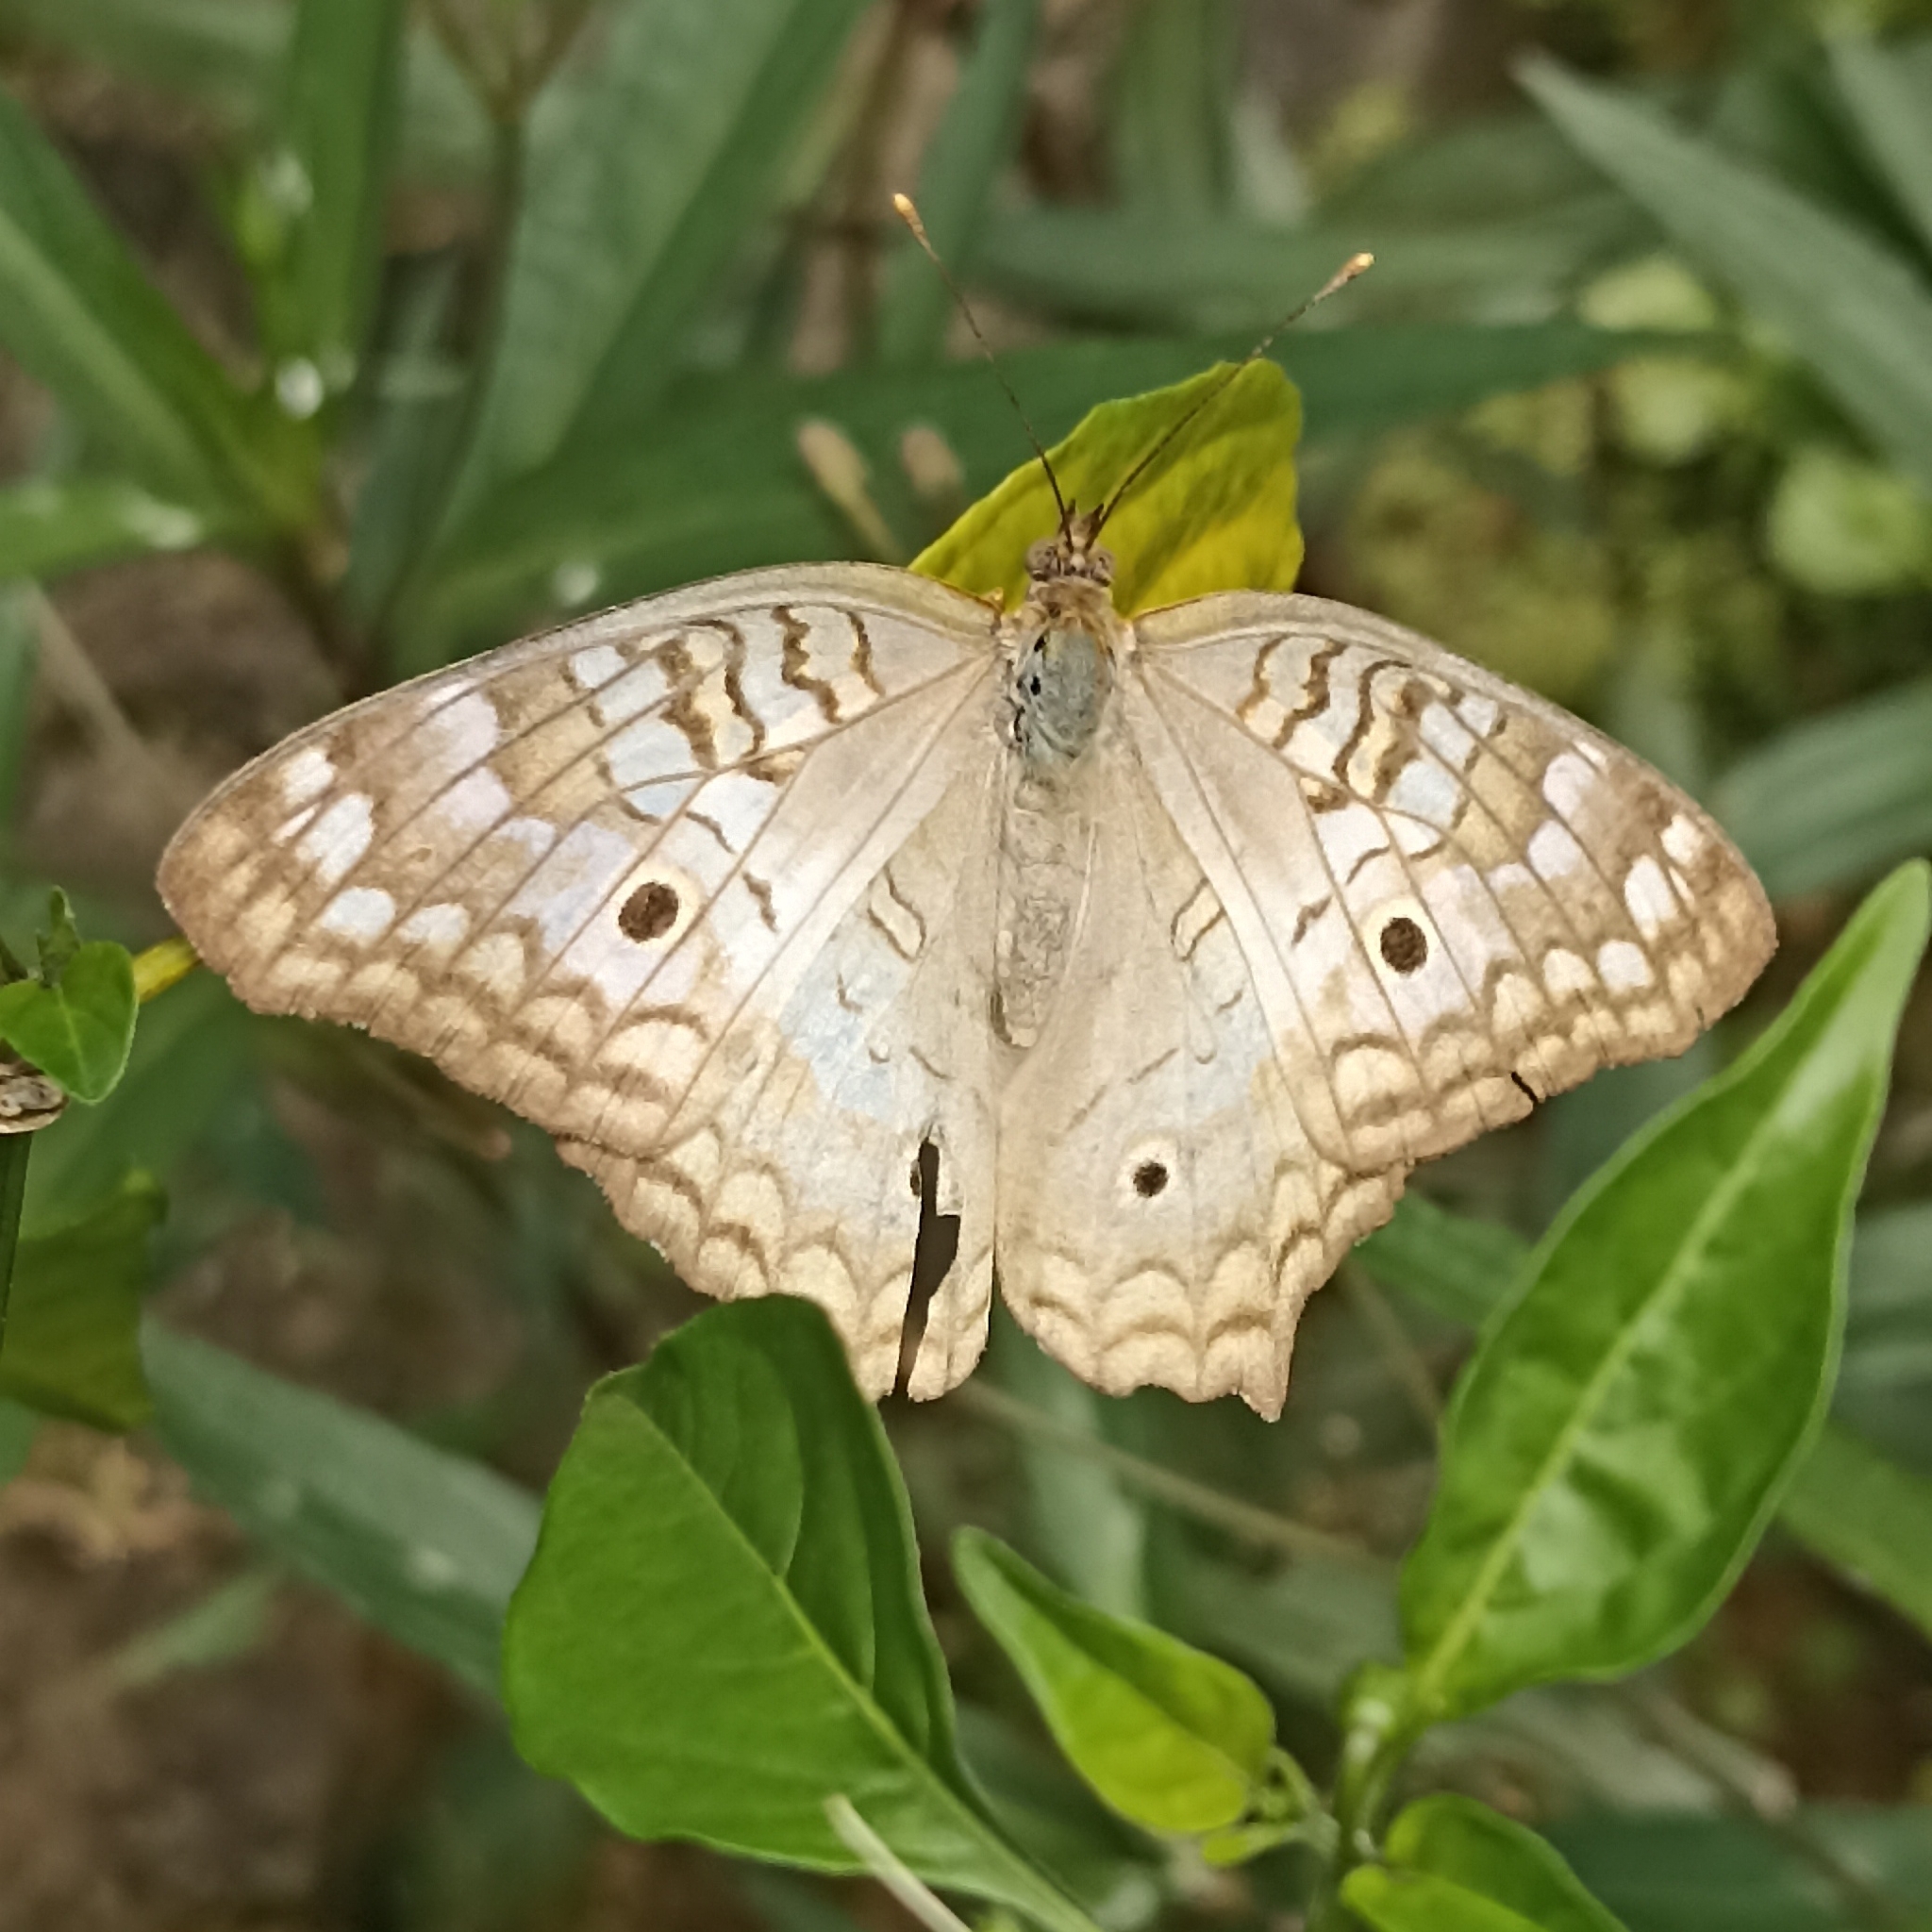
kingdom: Animalia
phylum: Arthropoda
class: Insecta
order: Lepidoptera
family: Nymphalidae
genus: Anartia
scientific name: Anartia jatrophae
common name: White peacock
